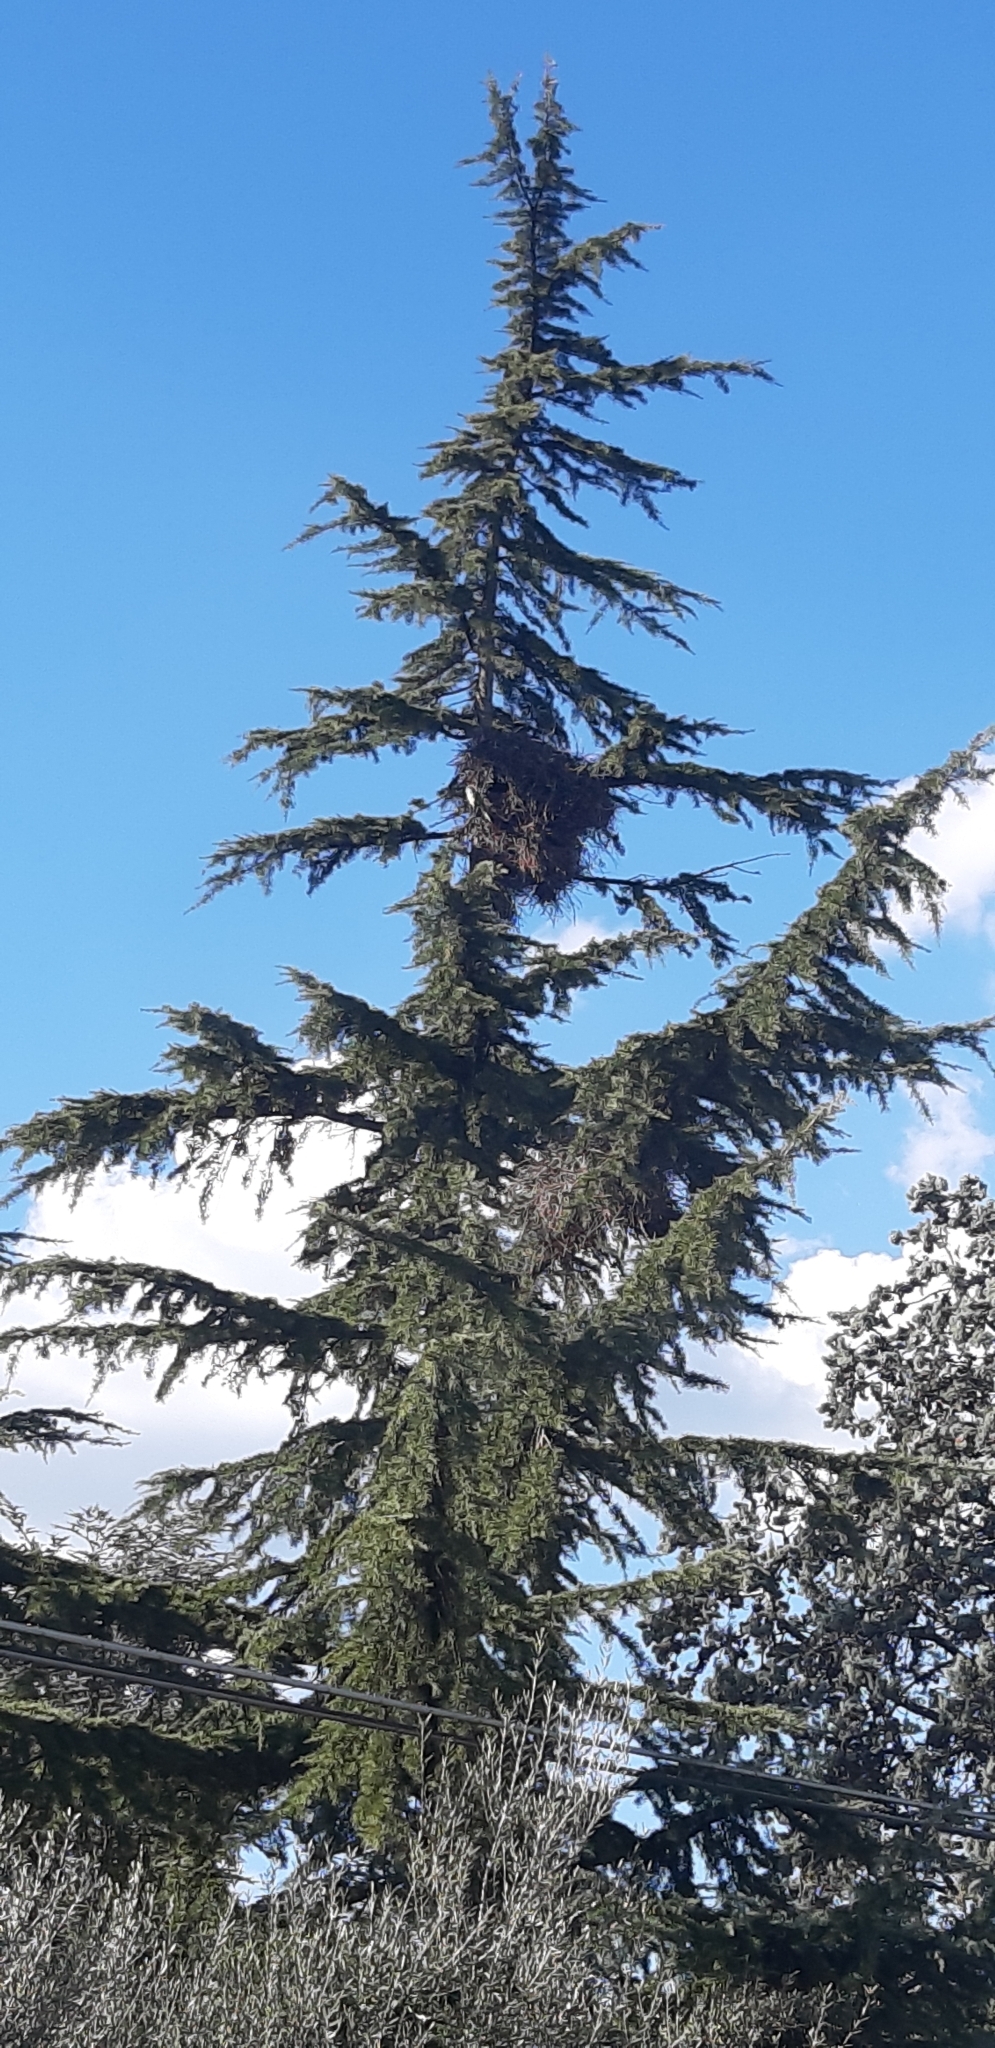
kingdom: Animalia
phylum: Chordata
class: Aves
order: Psittaciformes
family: Psittacidae
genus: Myiopsitta
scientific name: Myiopsitta monachus
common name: Monk parakeet
